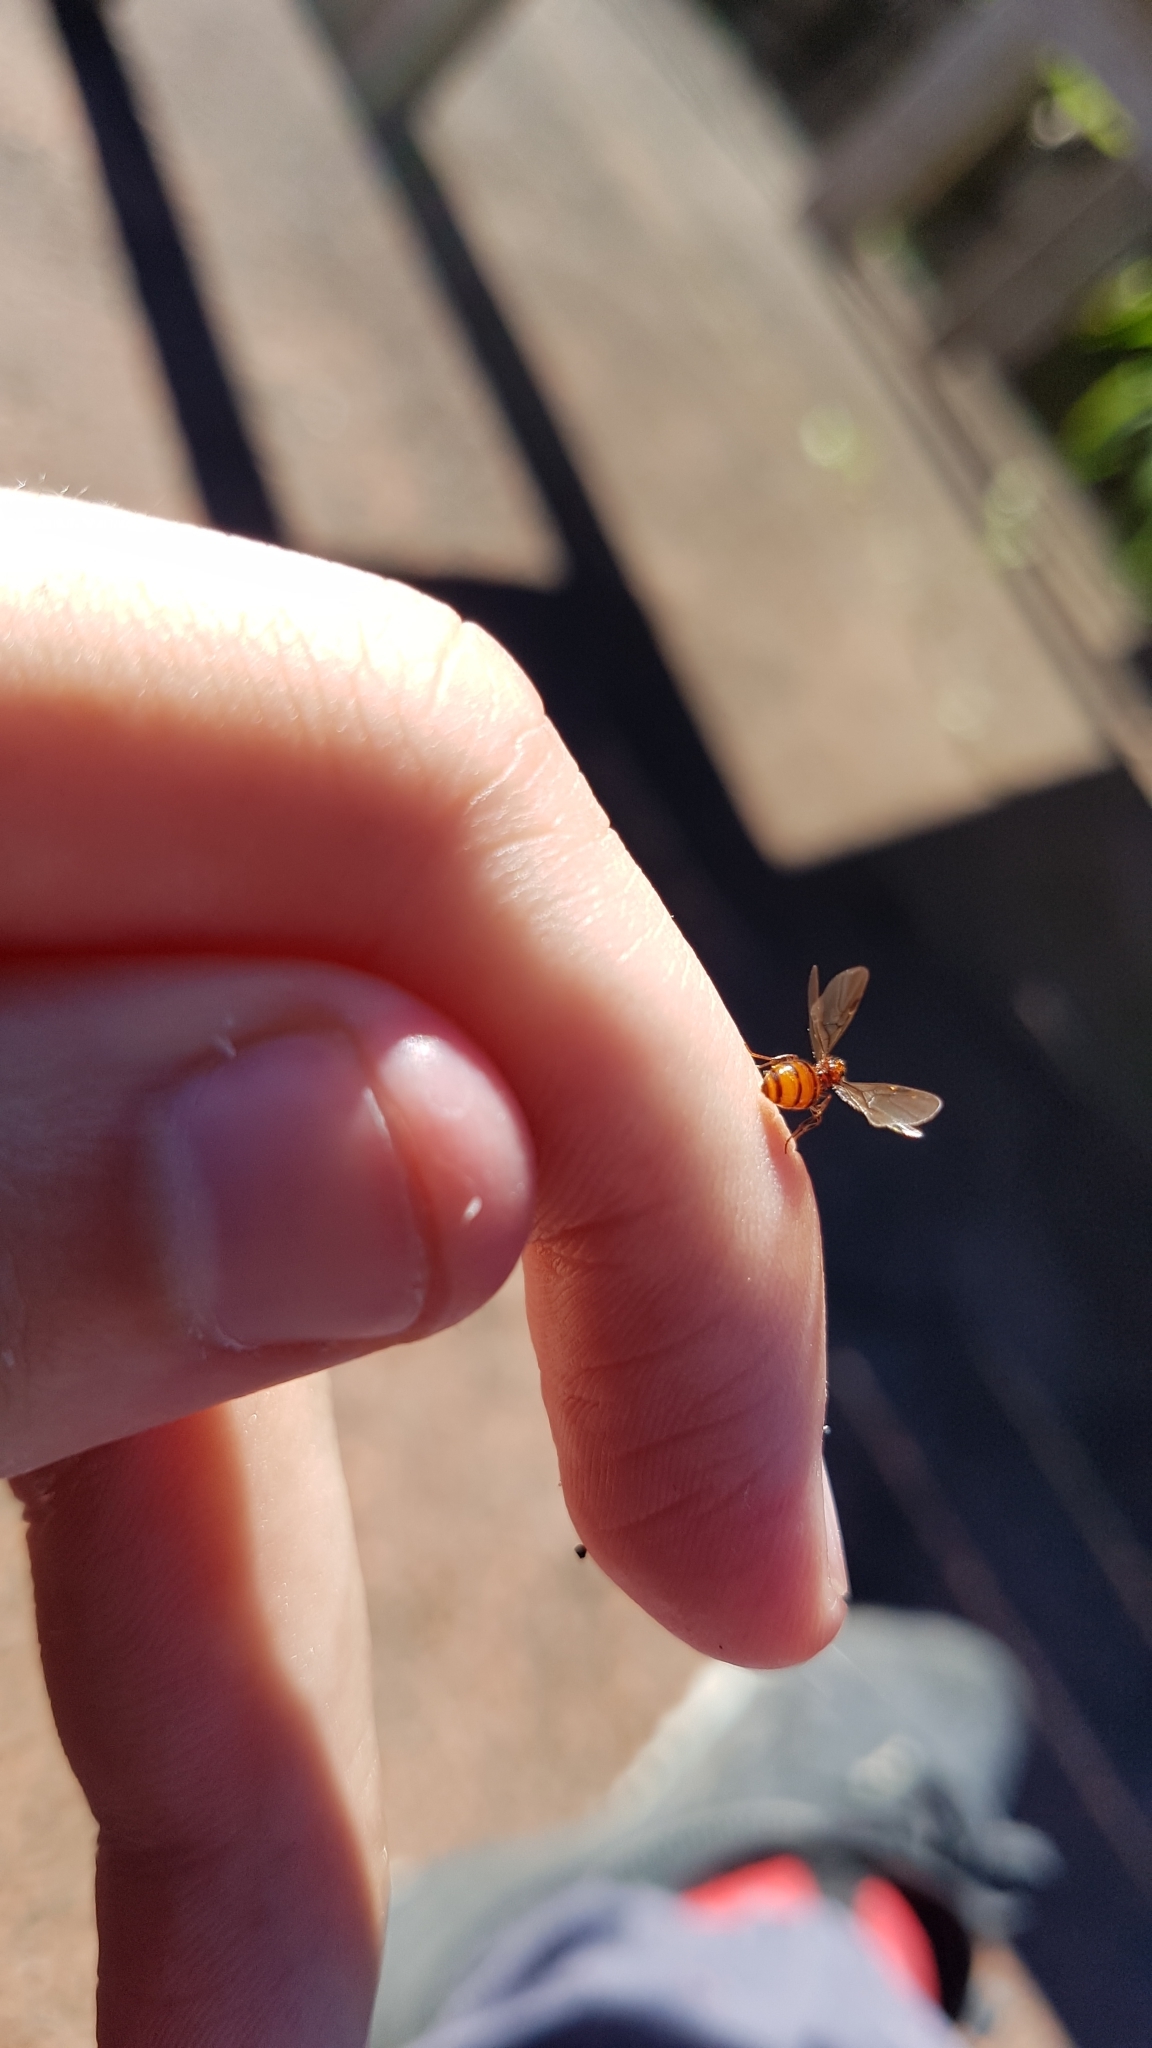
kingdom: Animalia
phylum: Arthropoda
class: Insecta
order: Hymenoptera
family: Formicidae
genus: Monomorium
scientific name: Monomorium antarcticum
